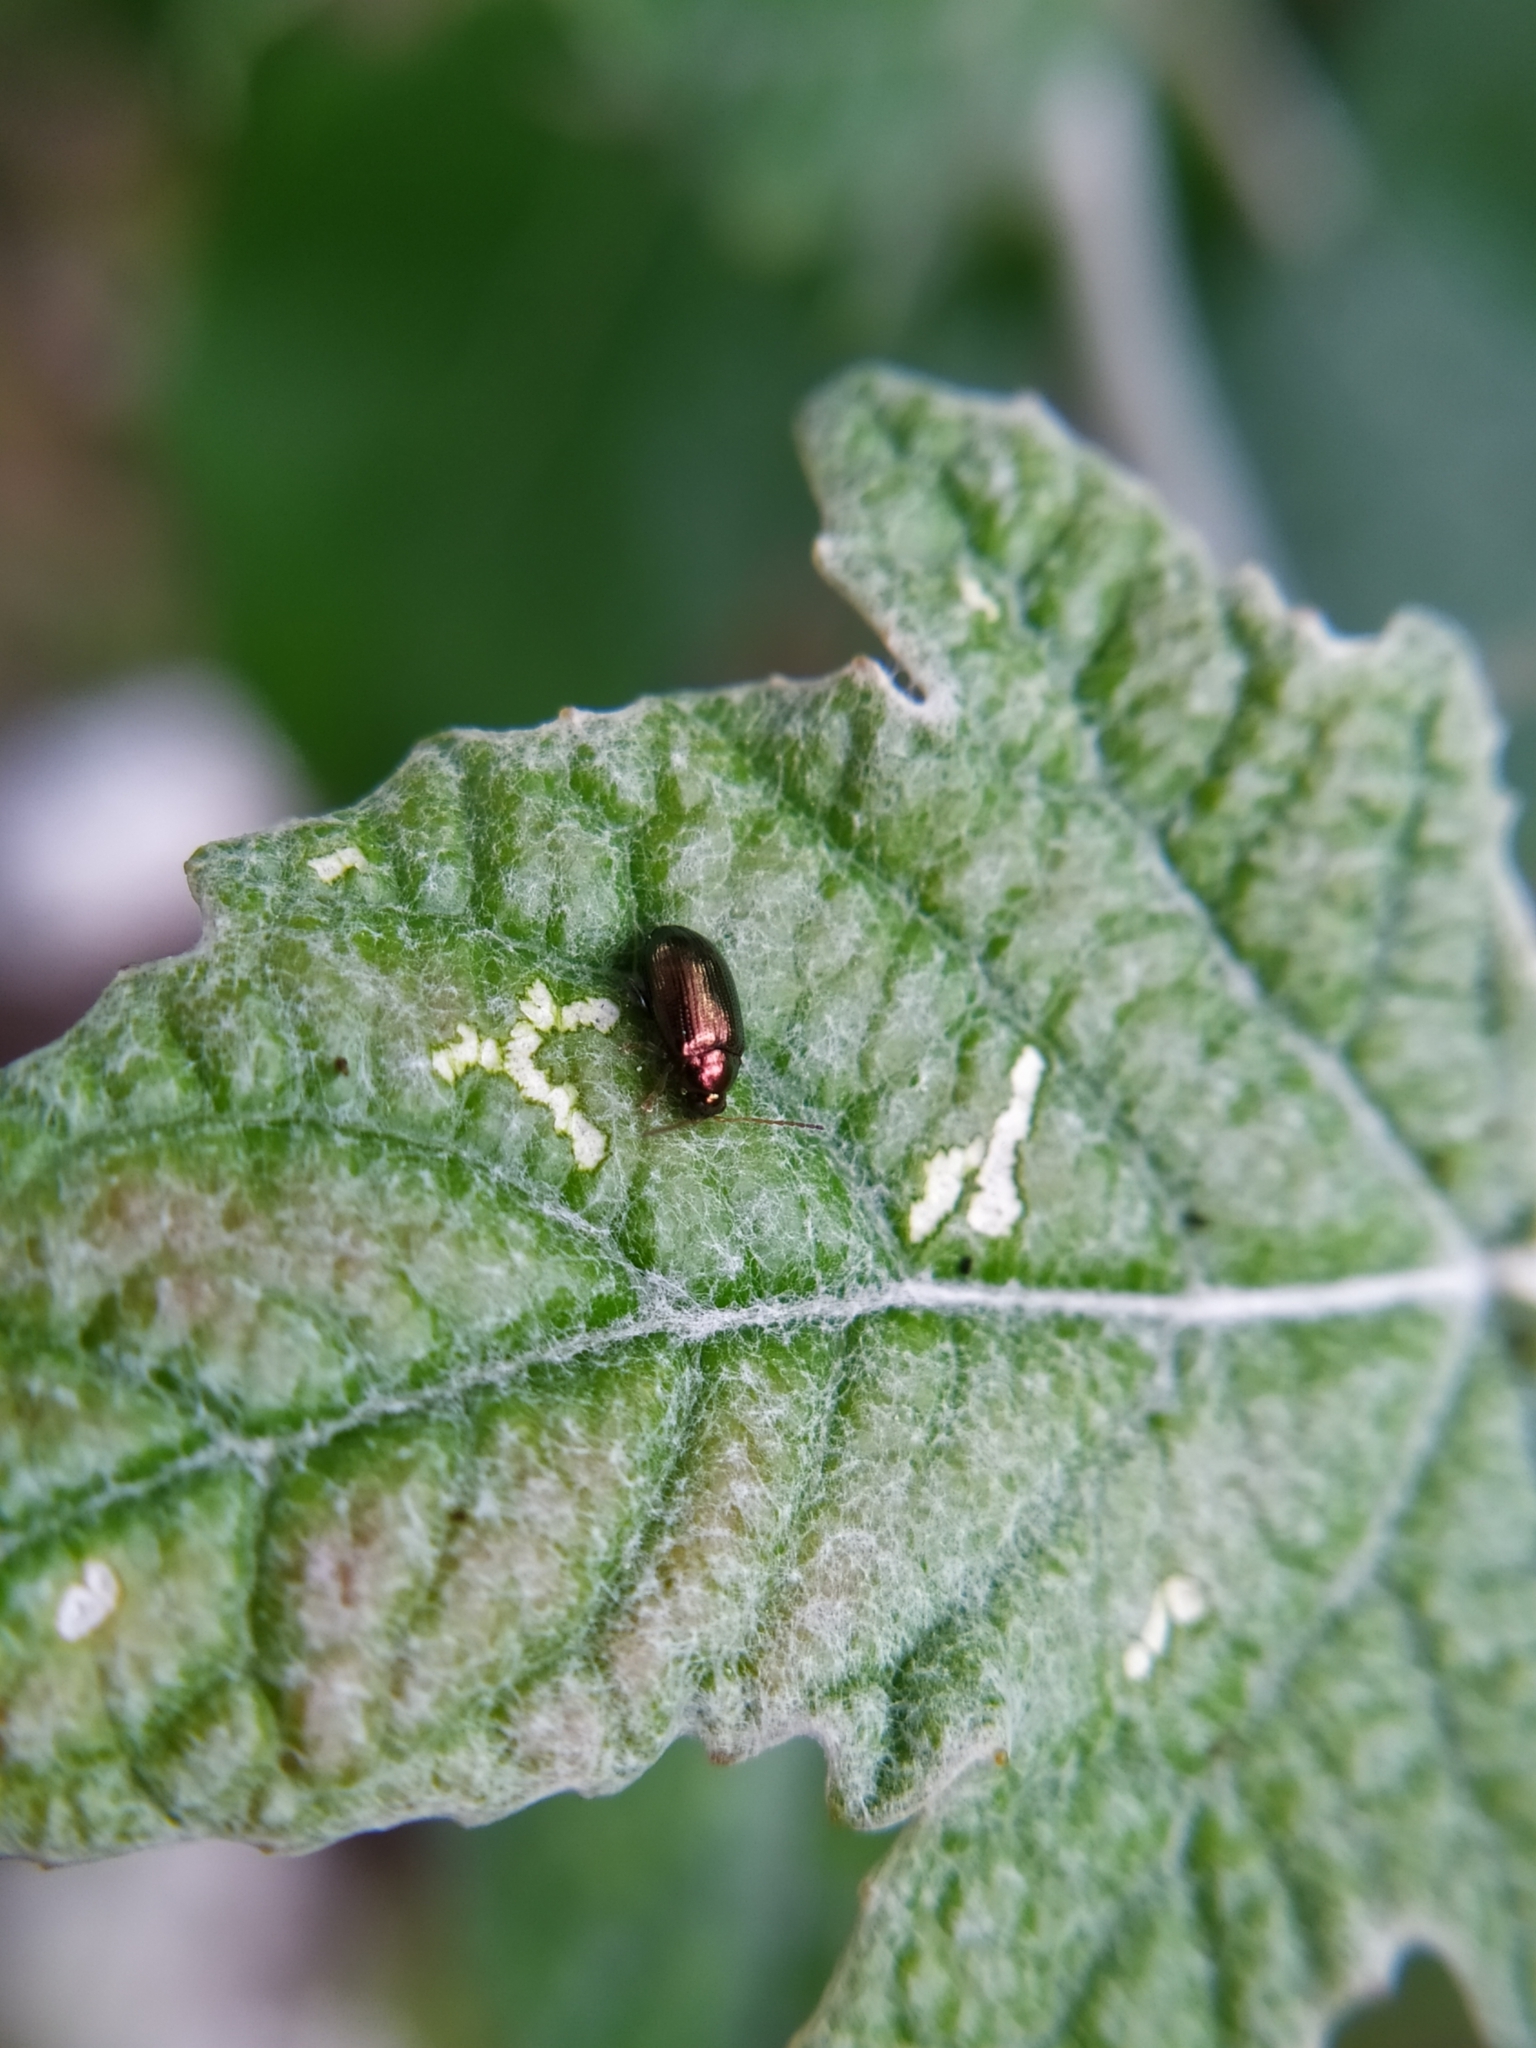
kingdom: Animalia
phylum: Arthropoda
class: Insecta
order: Coleoptera
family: Chrysomelidae
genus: Crepidodera
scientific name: Crepidodera
